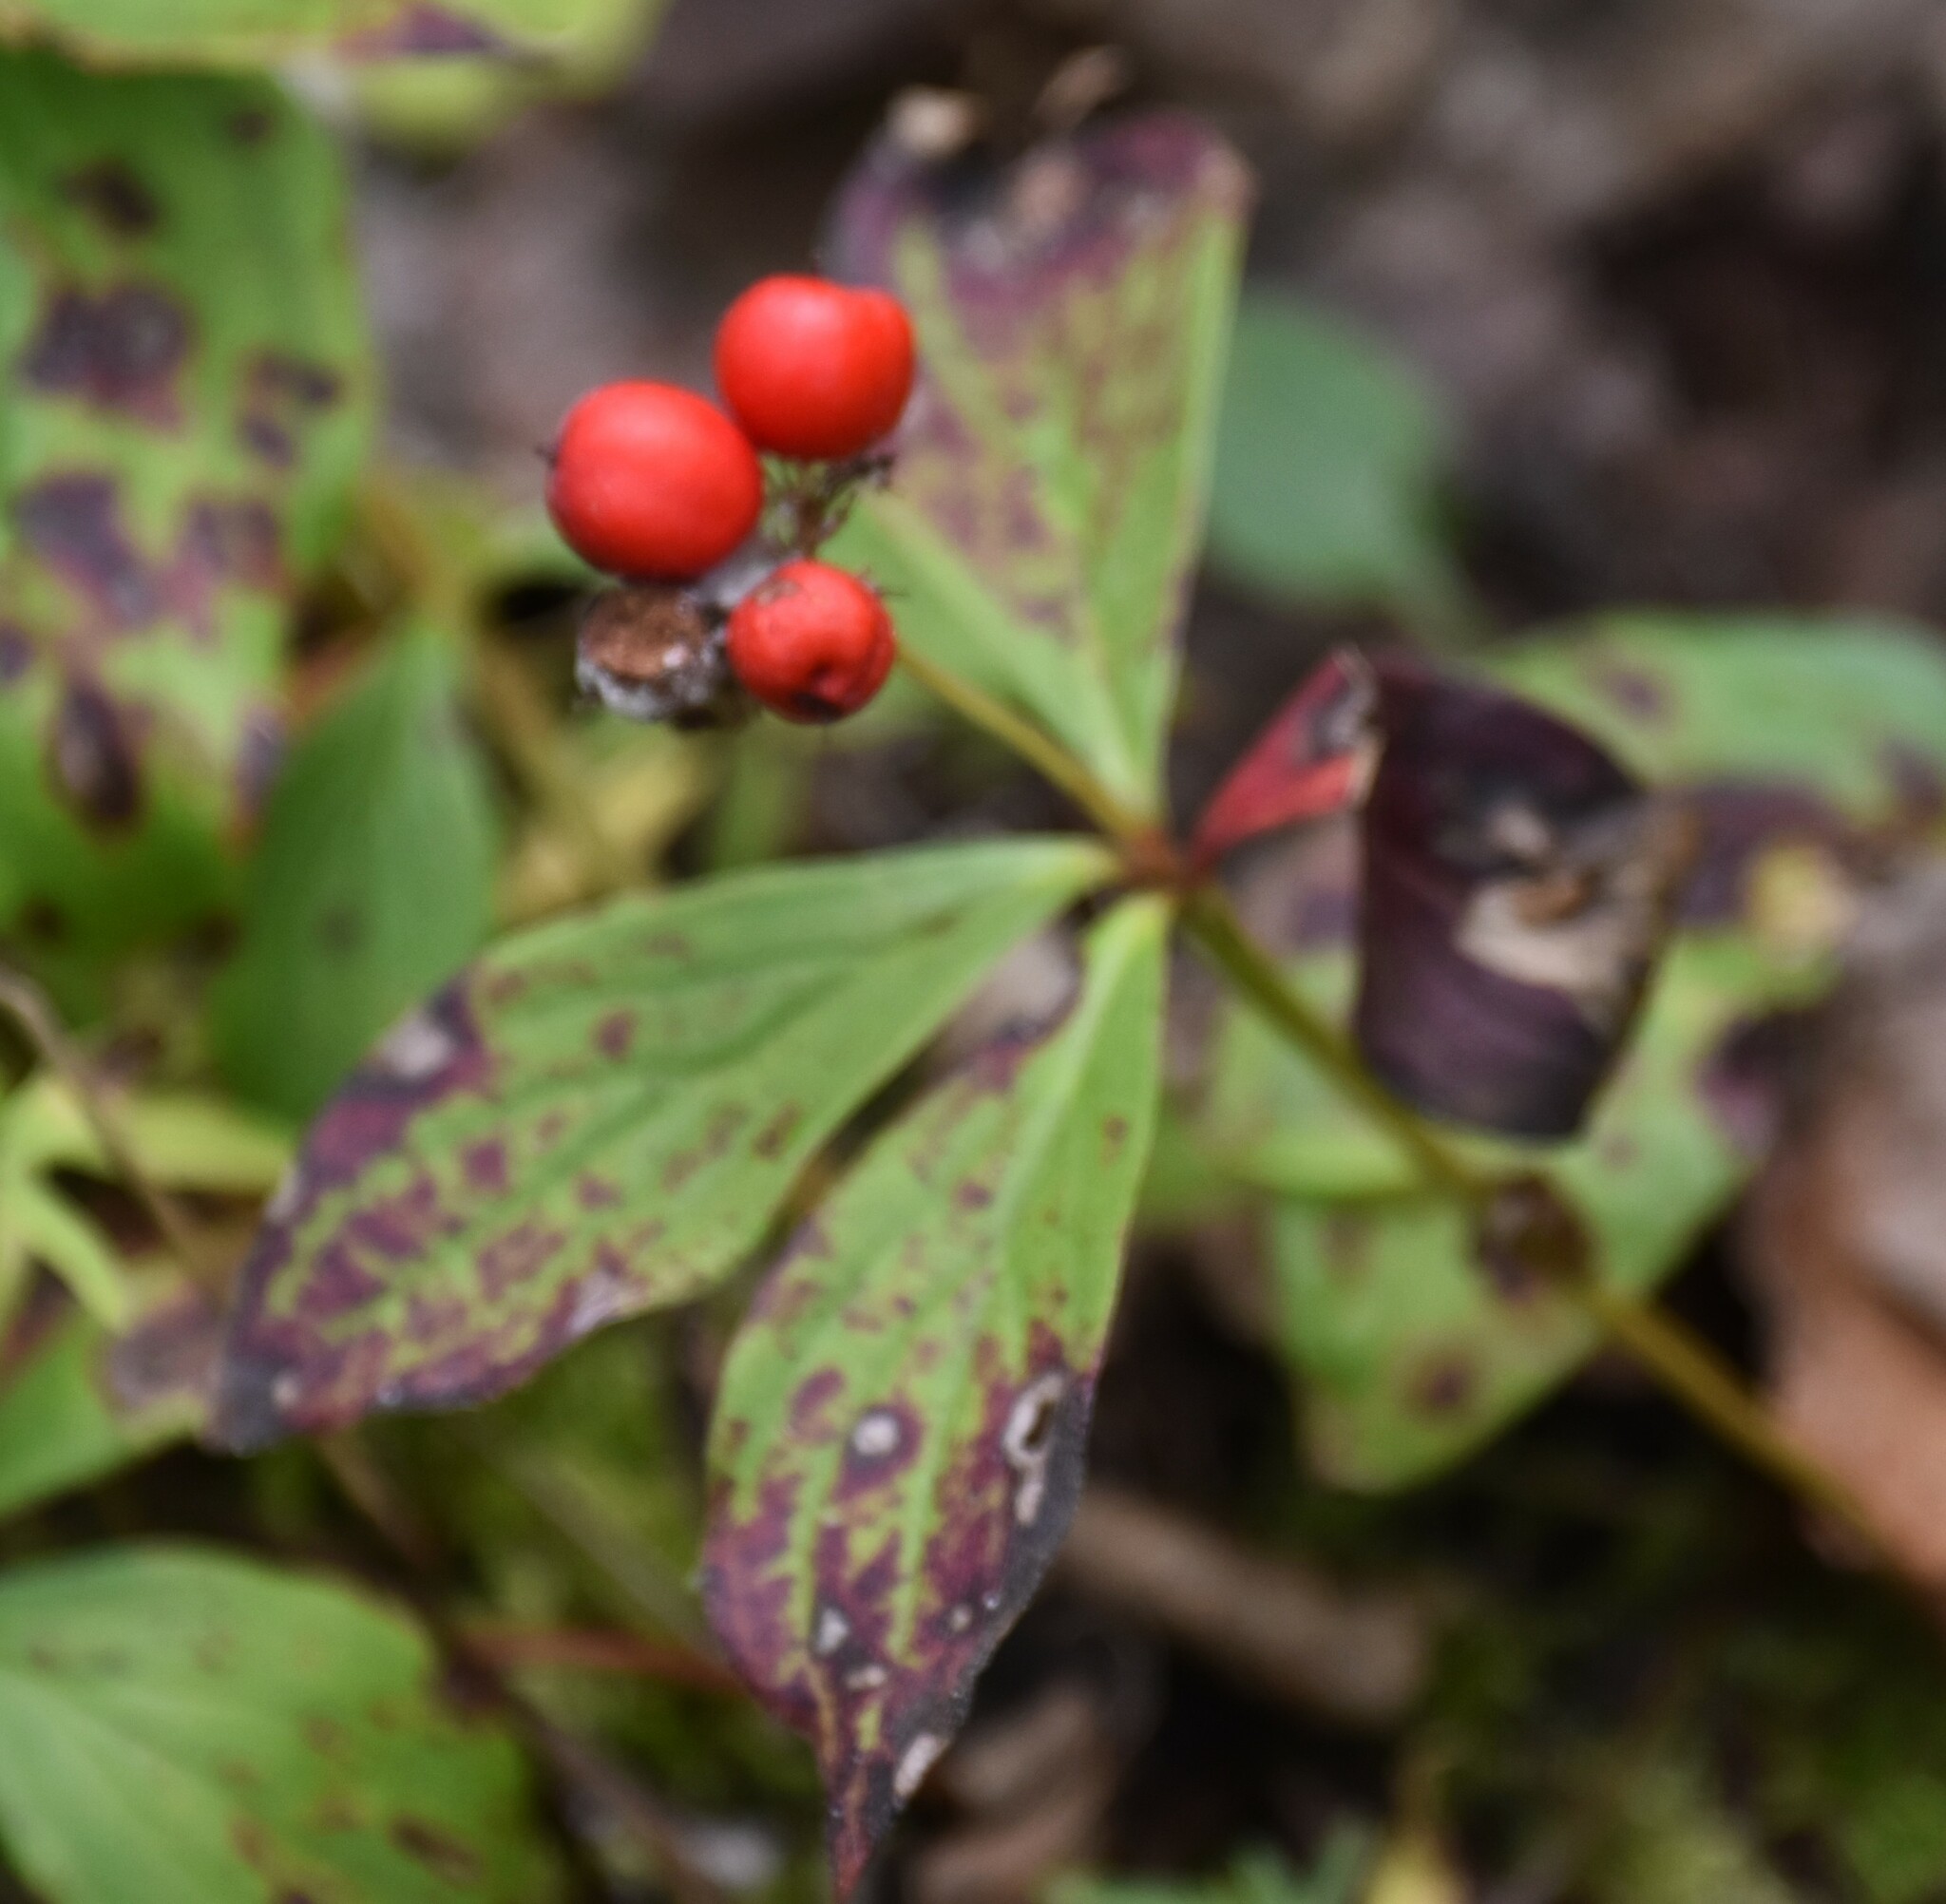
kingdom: Plantae
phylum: Tracheophyta
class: Magnoliopsida
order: Cornales
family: Cornaceae
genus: Cornus
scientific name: Cornus canadensis
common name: Creeping dogwood
